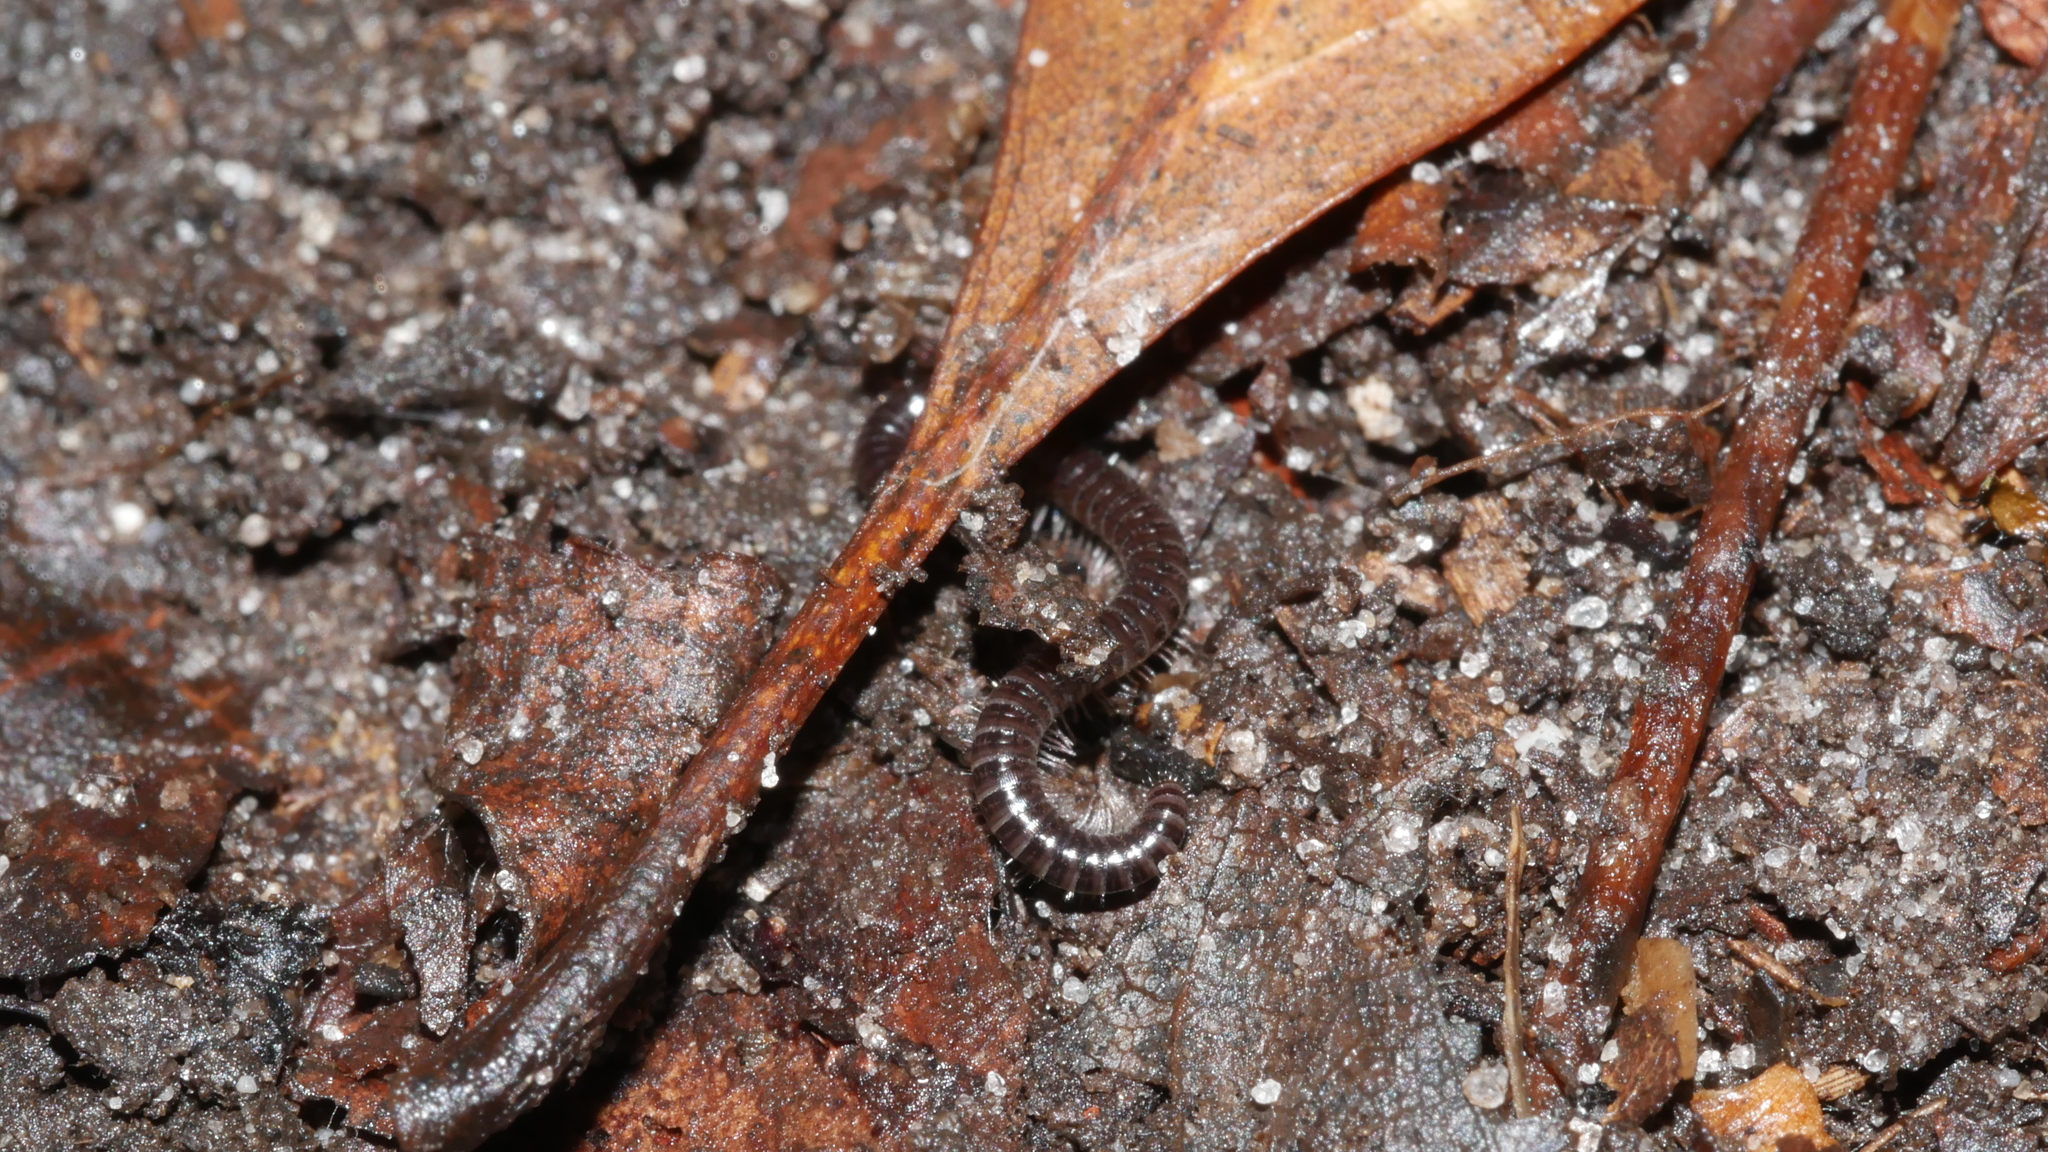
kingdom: Animalia
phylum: Arthropoda
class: Diplopoda
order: Julida
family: Julidae
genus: Ophyiulus
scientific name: Ophyiulus pilosus
